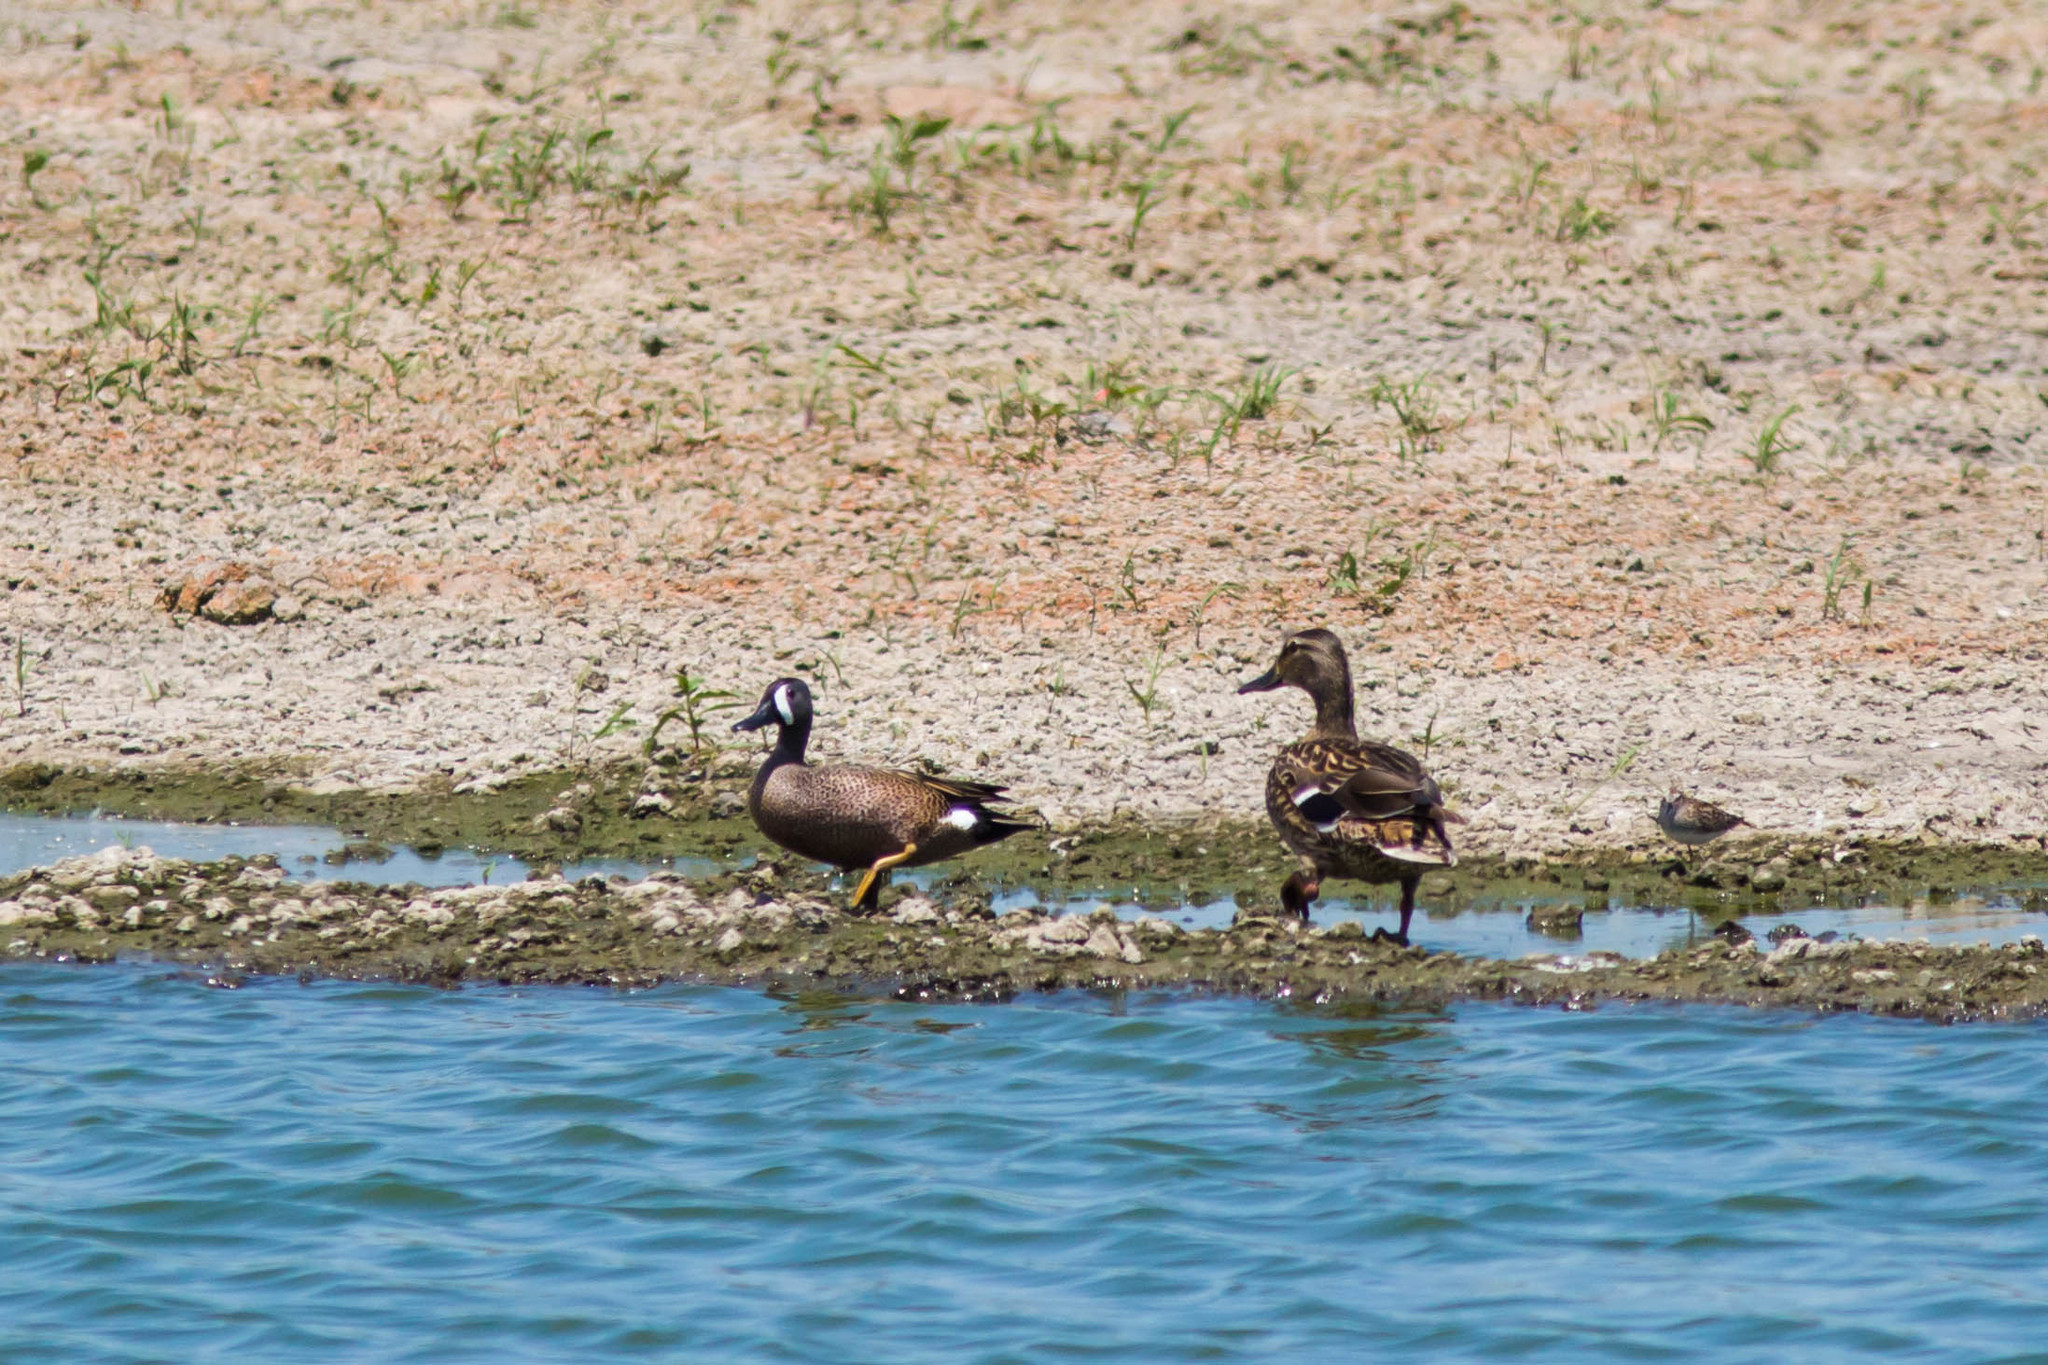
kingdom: Animalia
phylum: Chordata
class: Aves
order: Anseriformes
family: Anatidae
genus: Spatula
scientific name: Spatula discors
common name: Blue-winged teal
